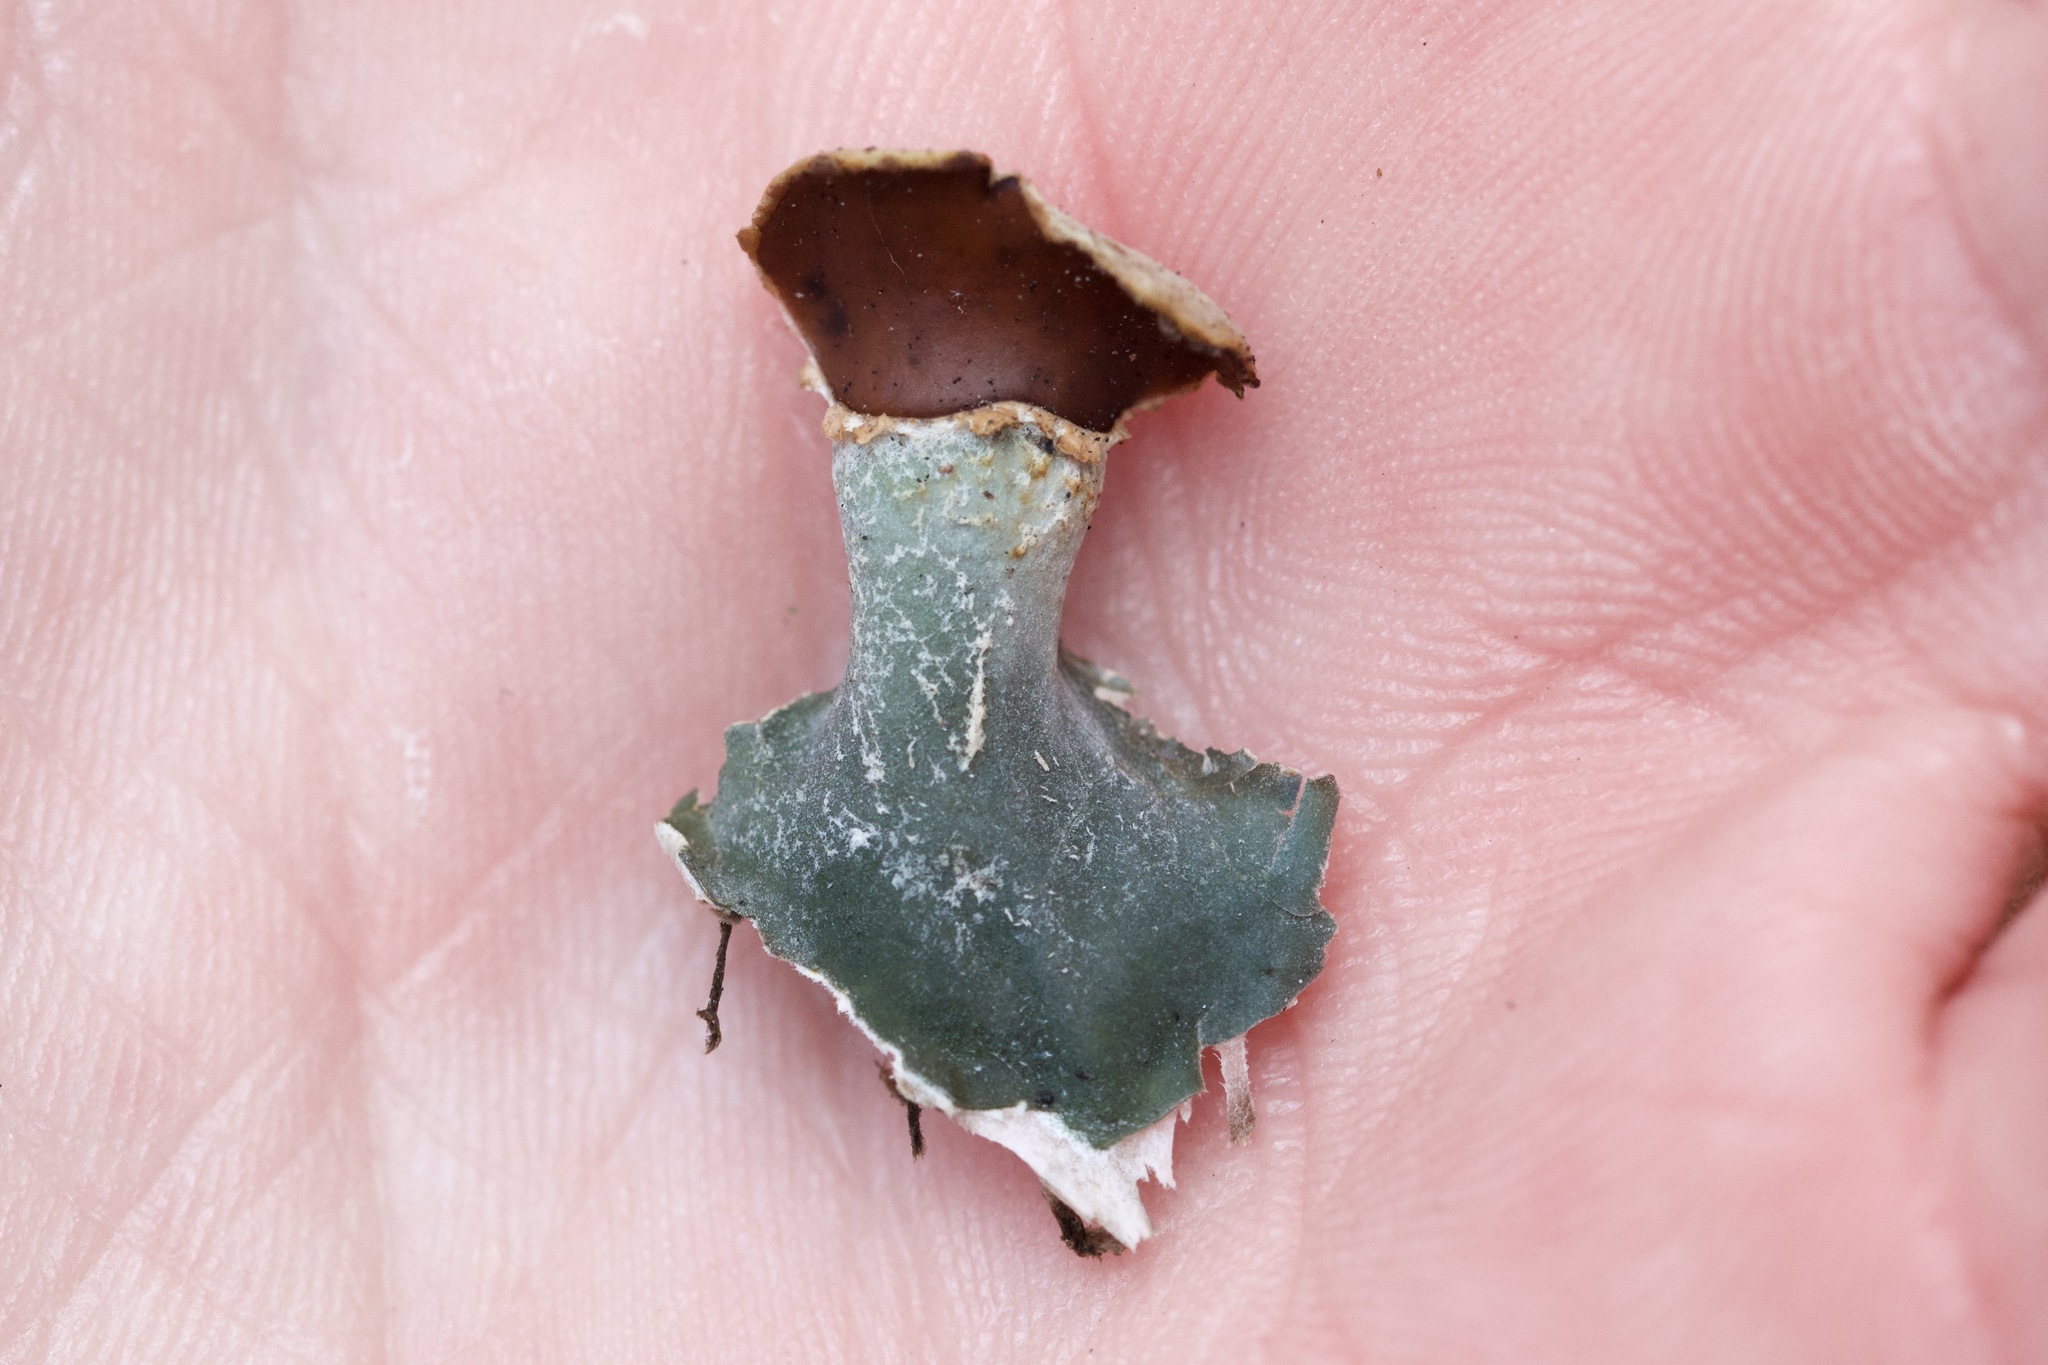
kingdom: Fungi
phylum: Ascomycota
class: Lecanoromycetes
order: Peltigerales
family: Peltigeraceae
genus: Peltigera
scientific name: Peltigera rufescens
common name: Field dog lichen
